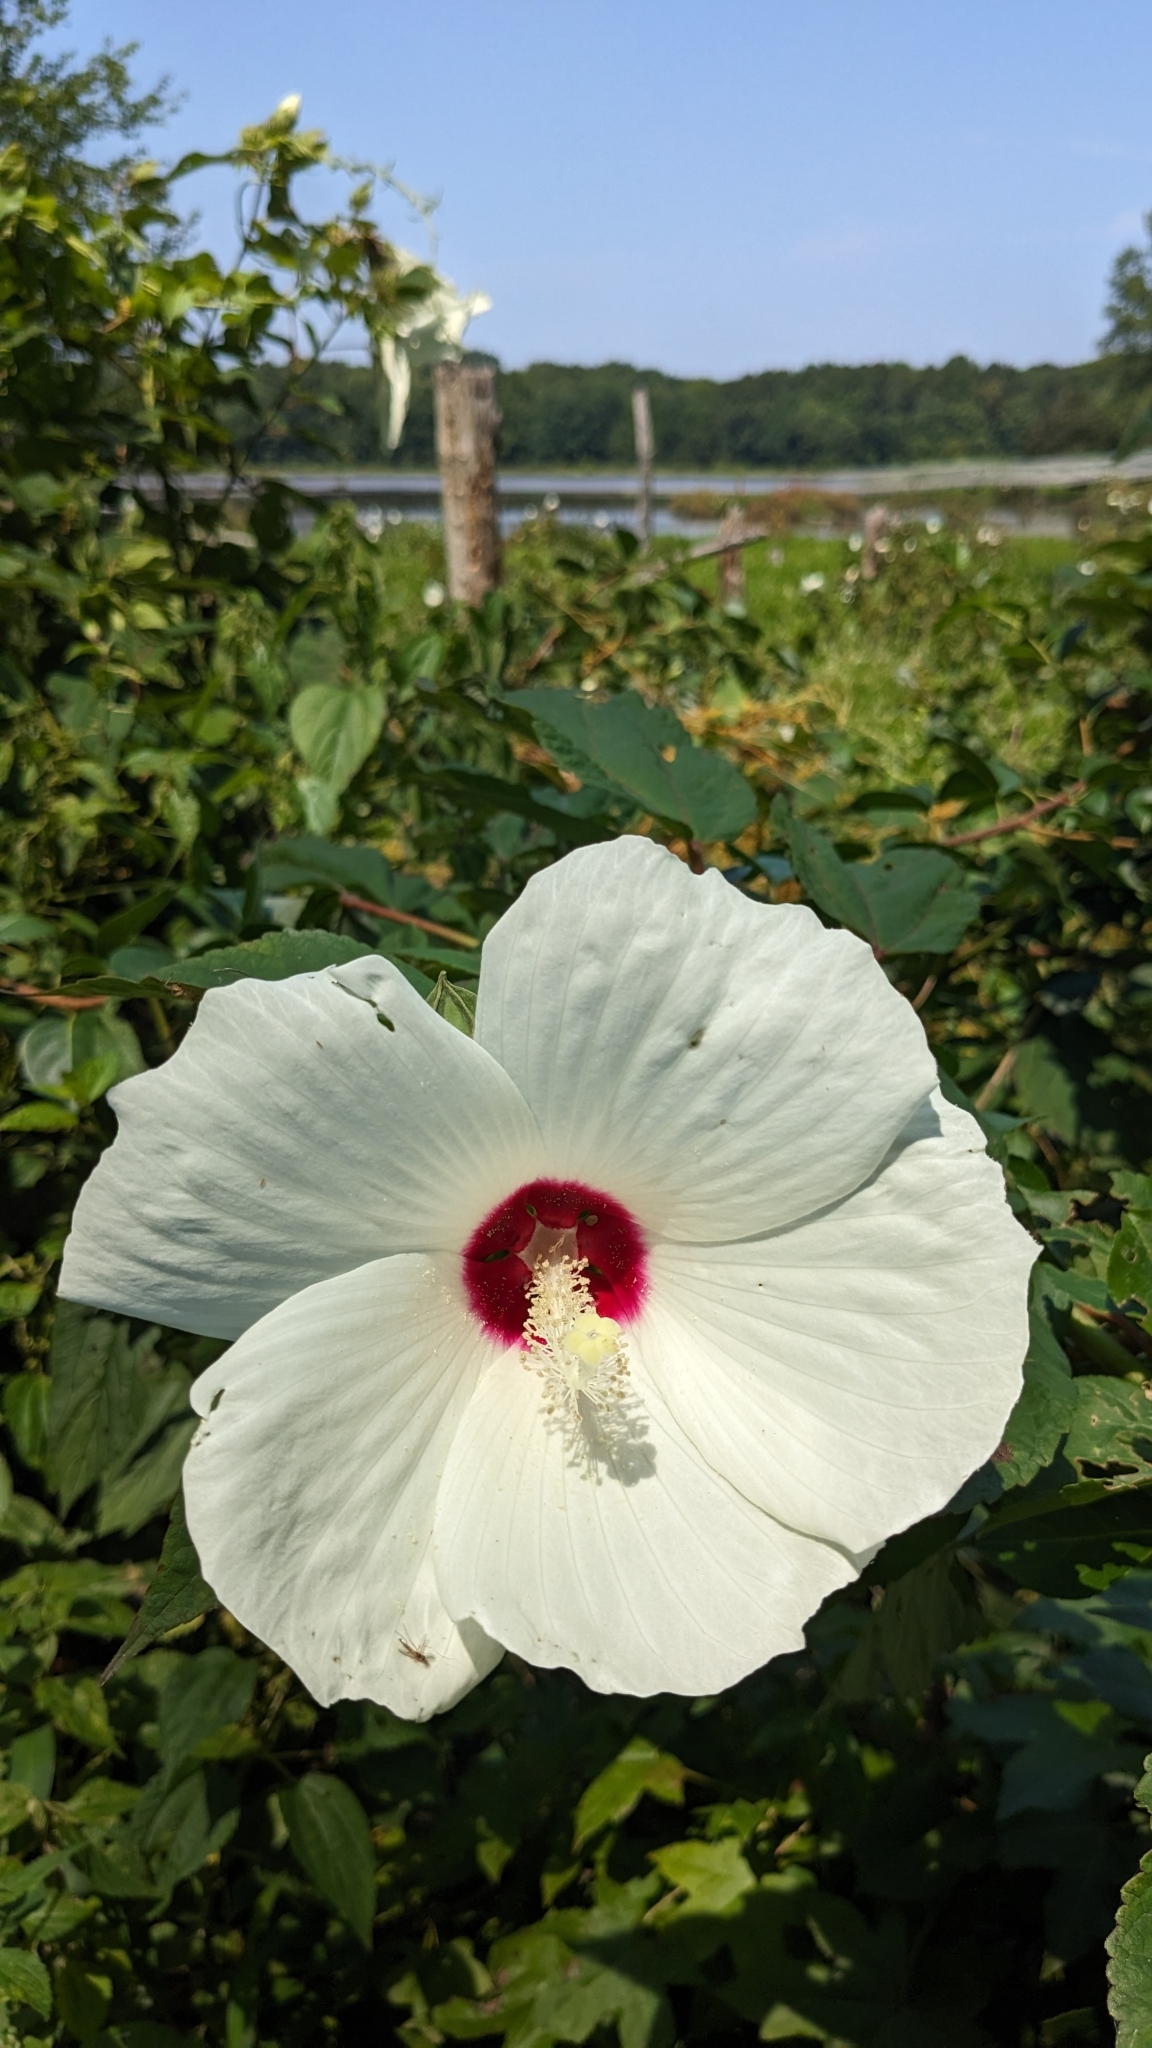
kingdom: Plantae
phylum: Tracheophyta
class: Magnoliopsida
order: Malvales
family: Malvaceae
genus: Hibiscus
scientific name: Hibiscus moscheutos
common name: Common rose-mallow
